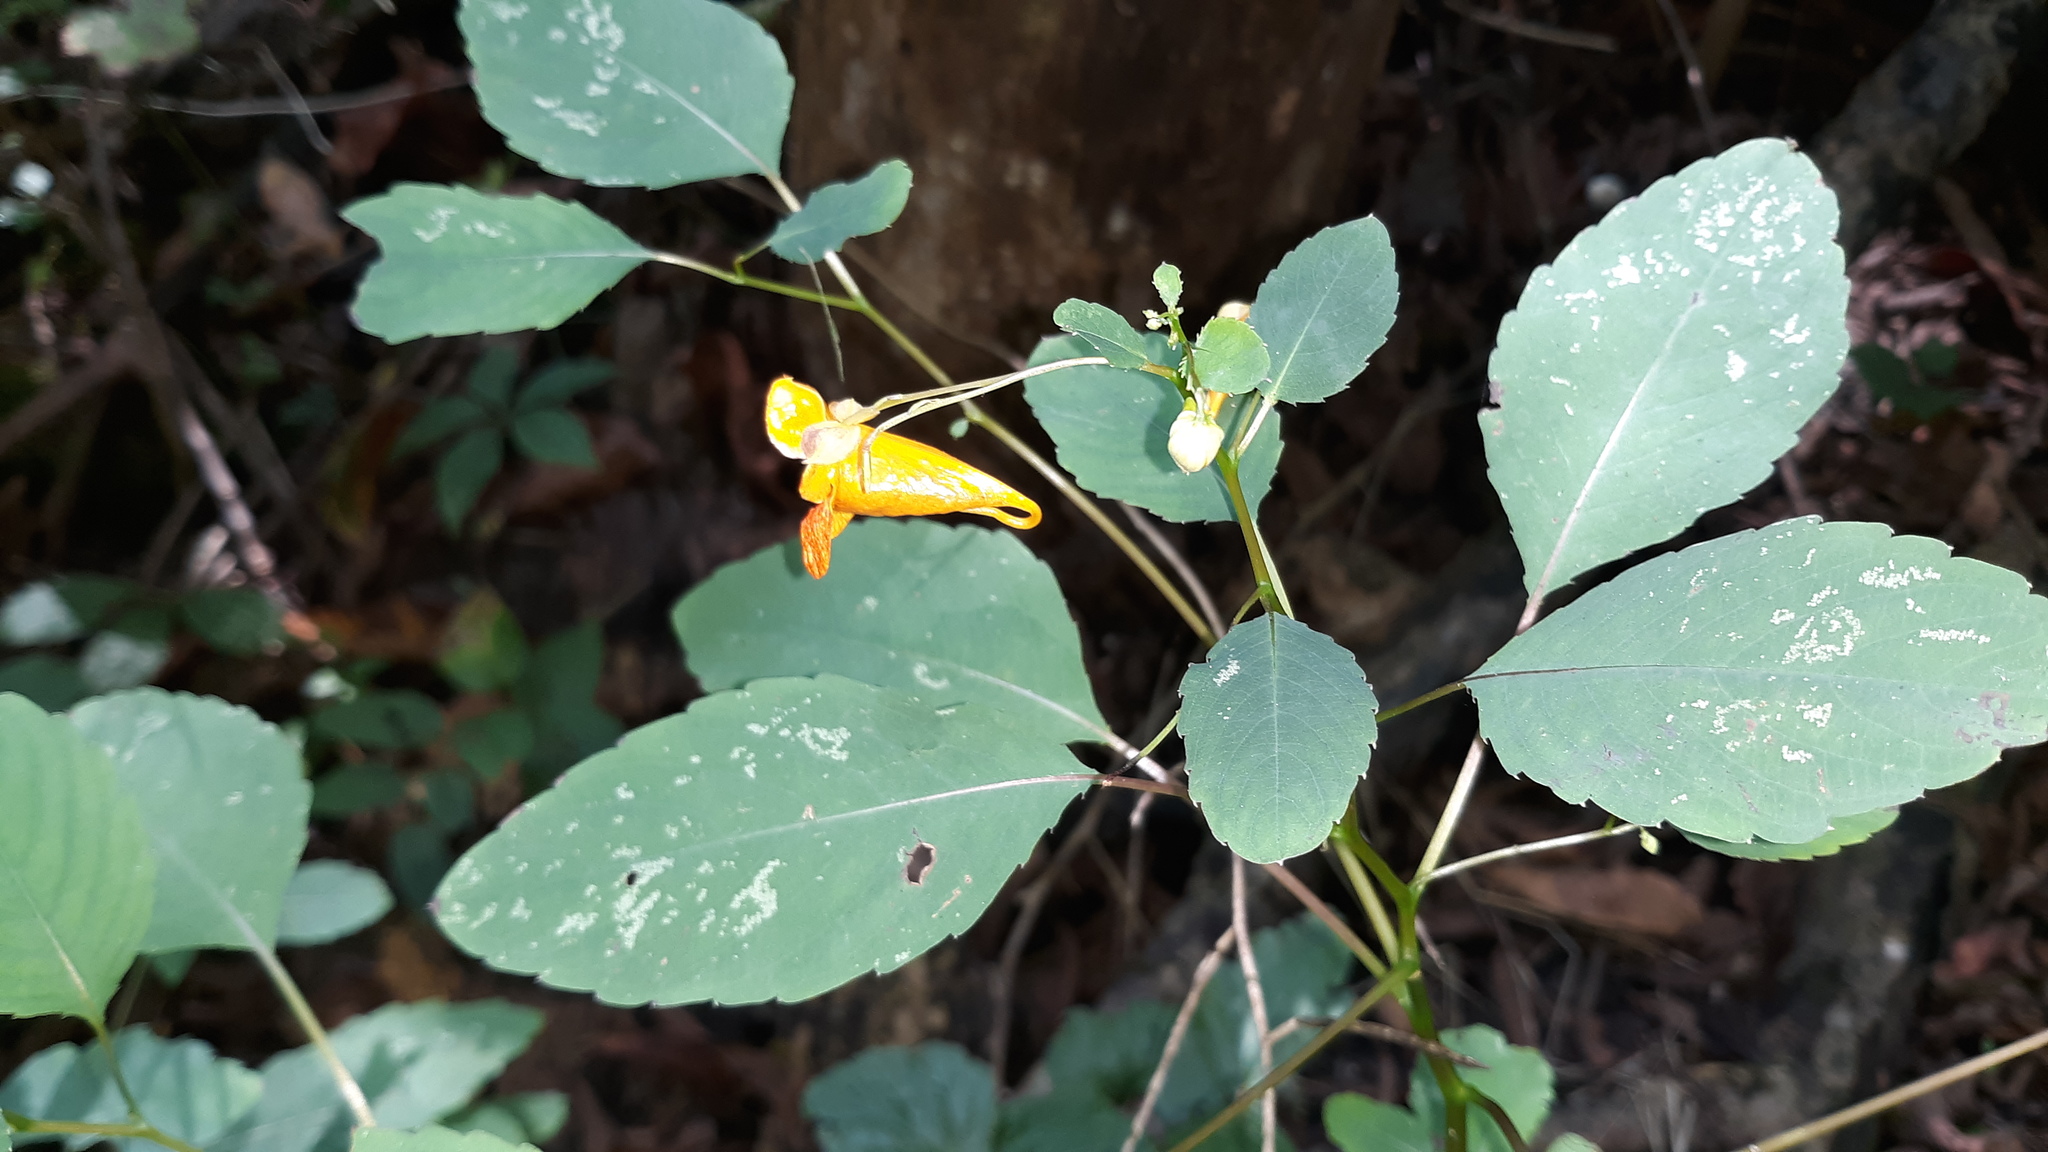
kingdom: Plantae
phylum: Tracheophyta
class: Magnoliopsida
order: Ericales
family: Balsaminaceae
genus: Impatiens
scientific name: Impatiens capensis
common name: Orange balsam
